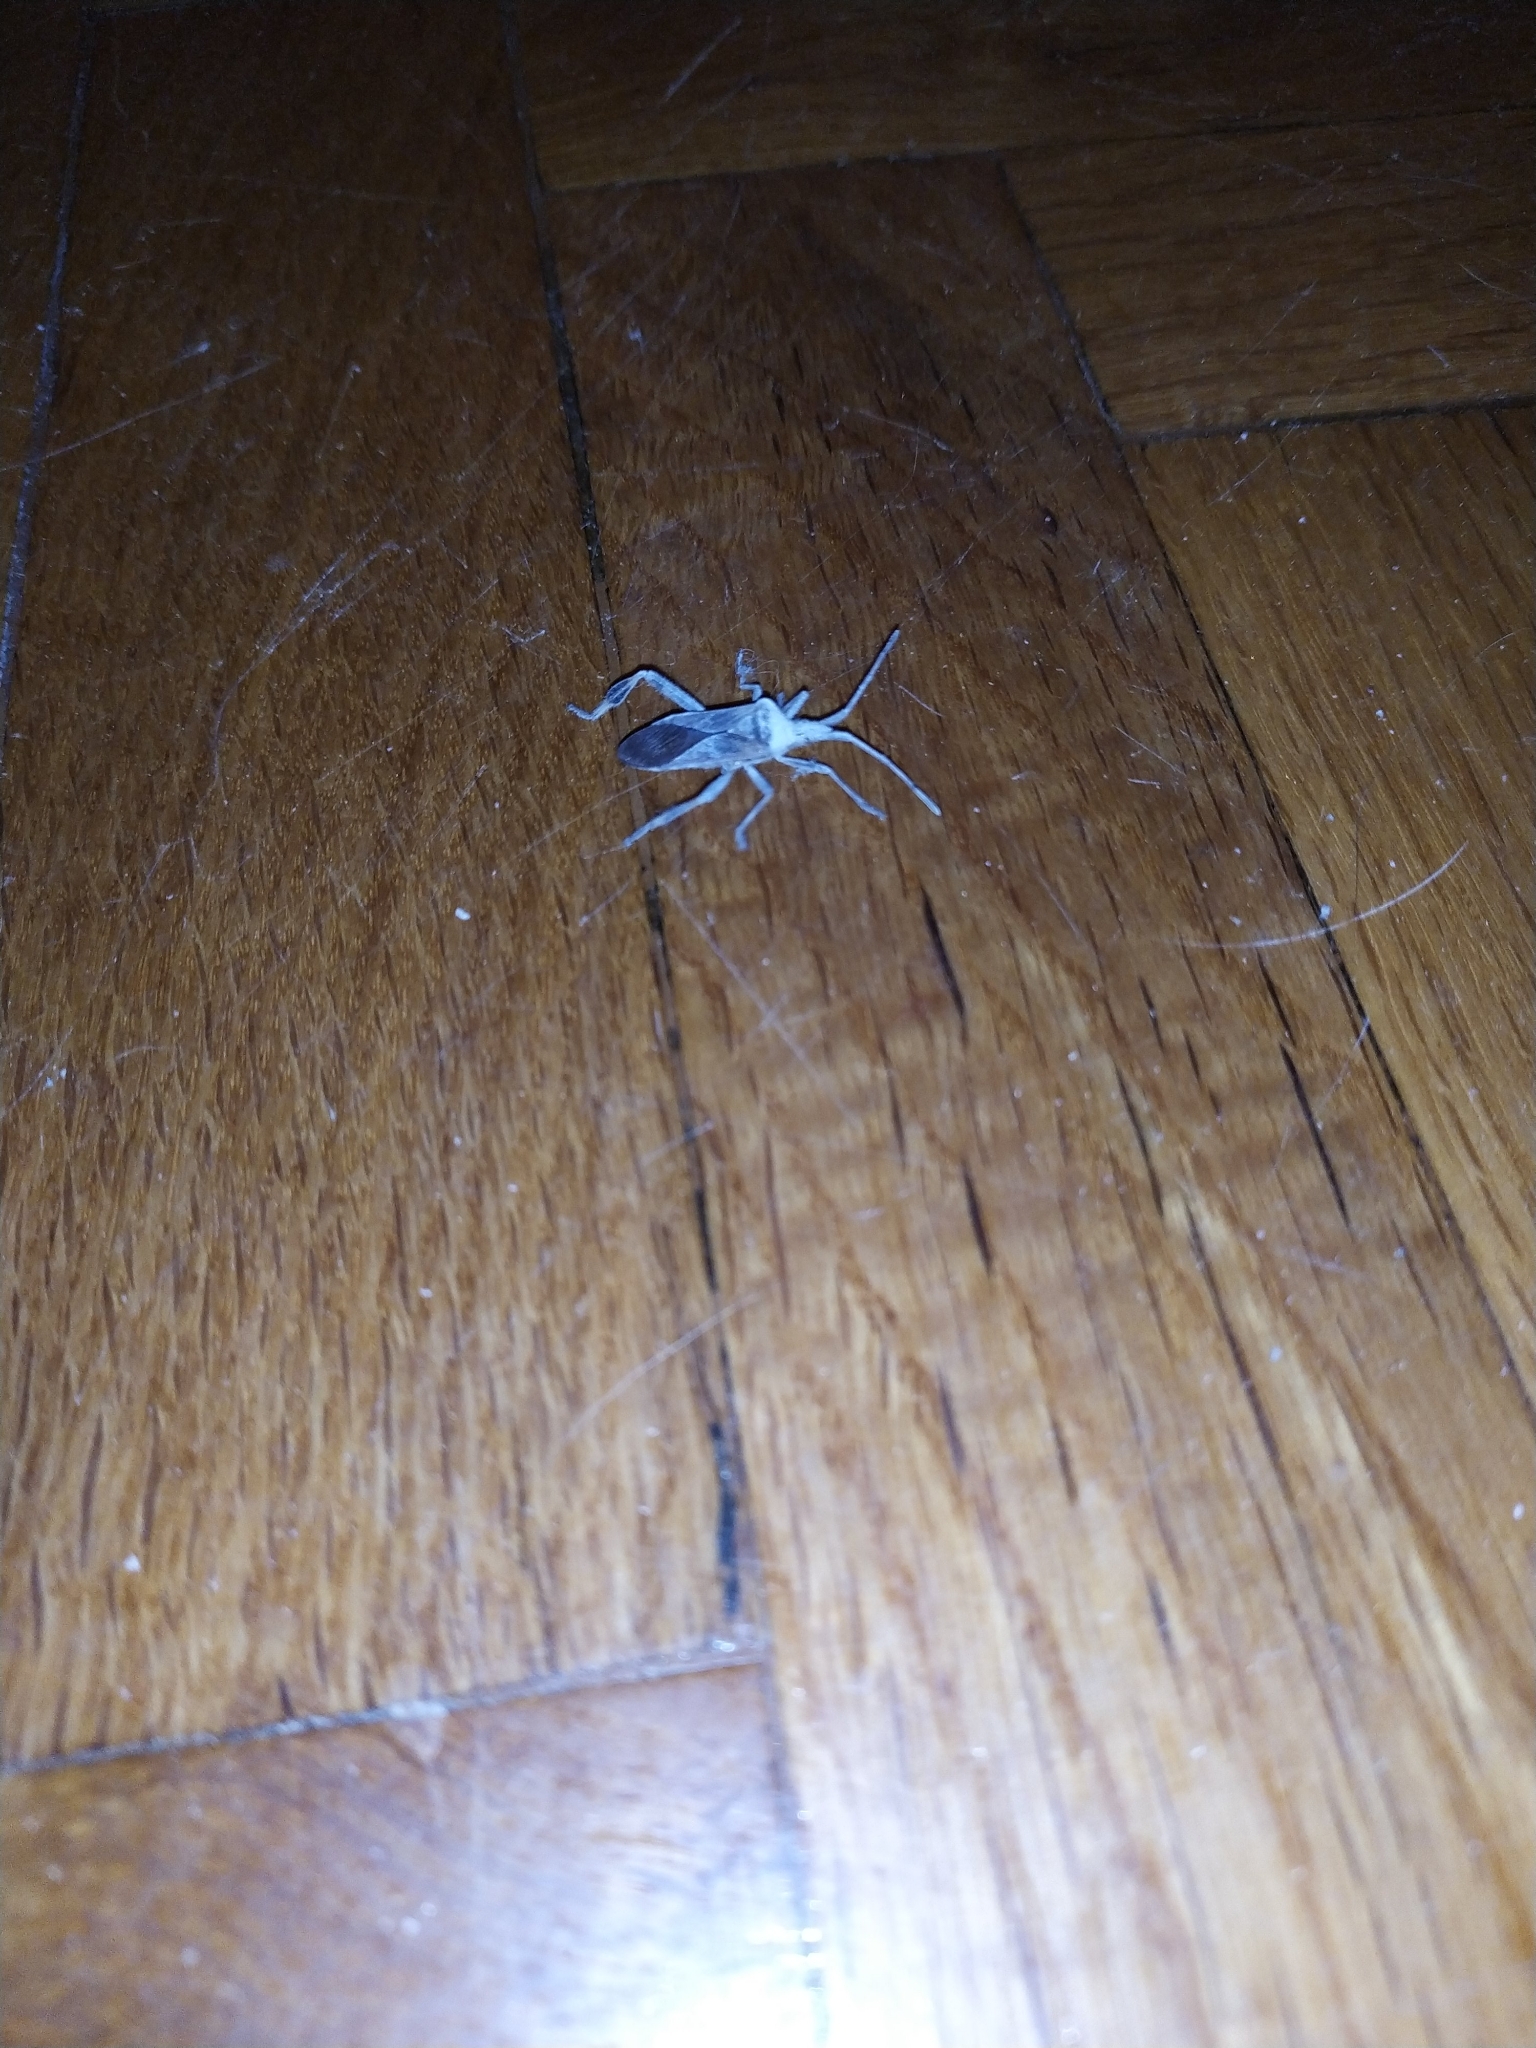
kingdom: Animalia
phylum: Arthropoda
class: Insecta
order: Hemiptera
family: Coreidae
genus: Leptoglossus
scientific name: Leptoglossus occidentalis
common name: Western conifer-seed bug
